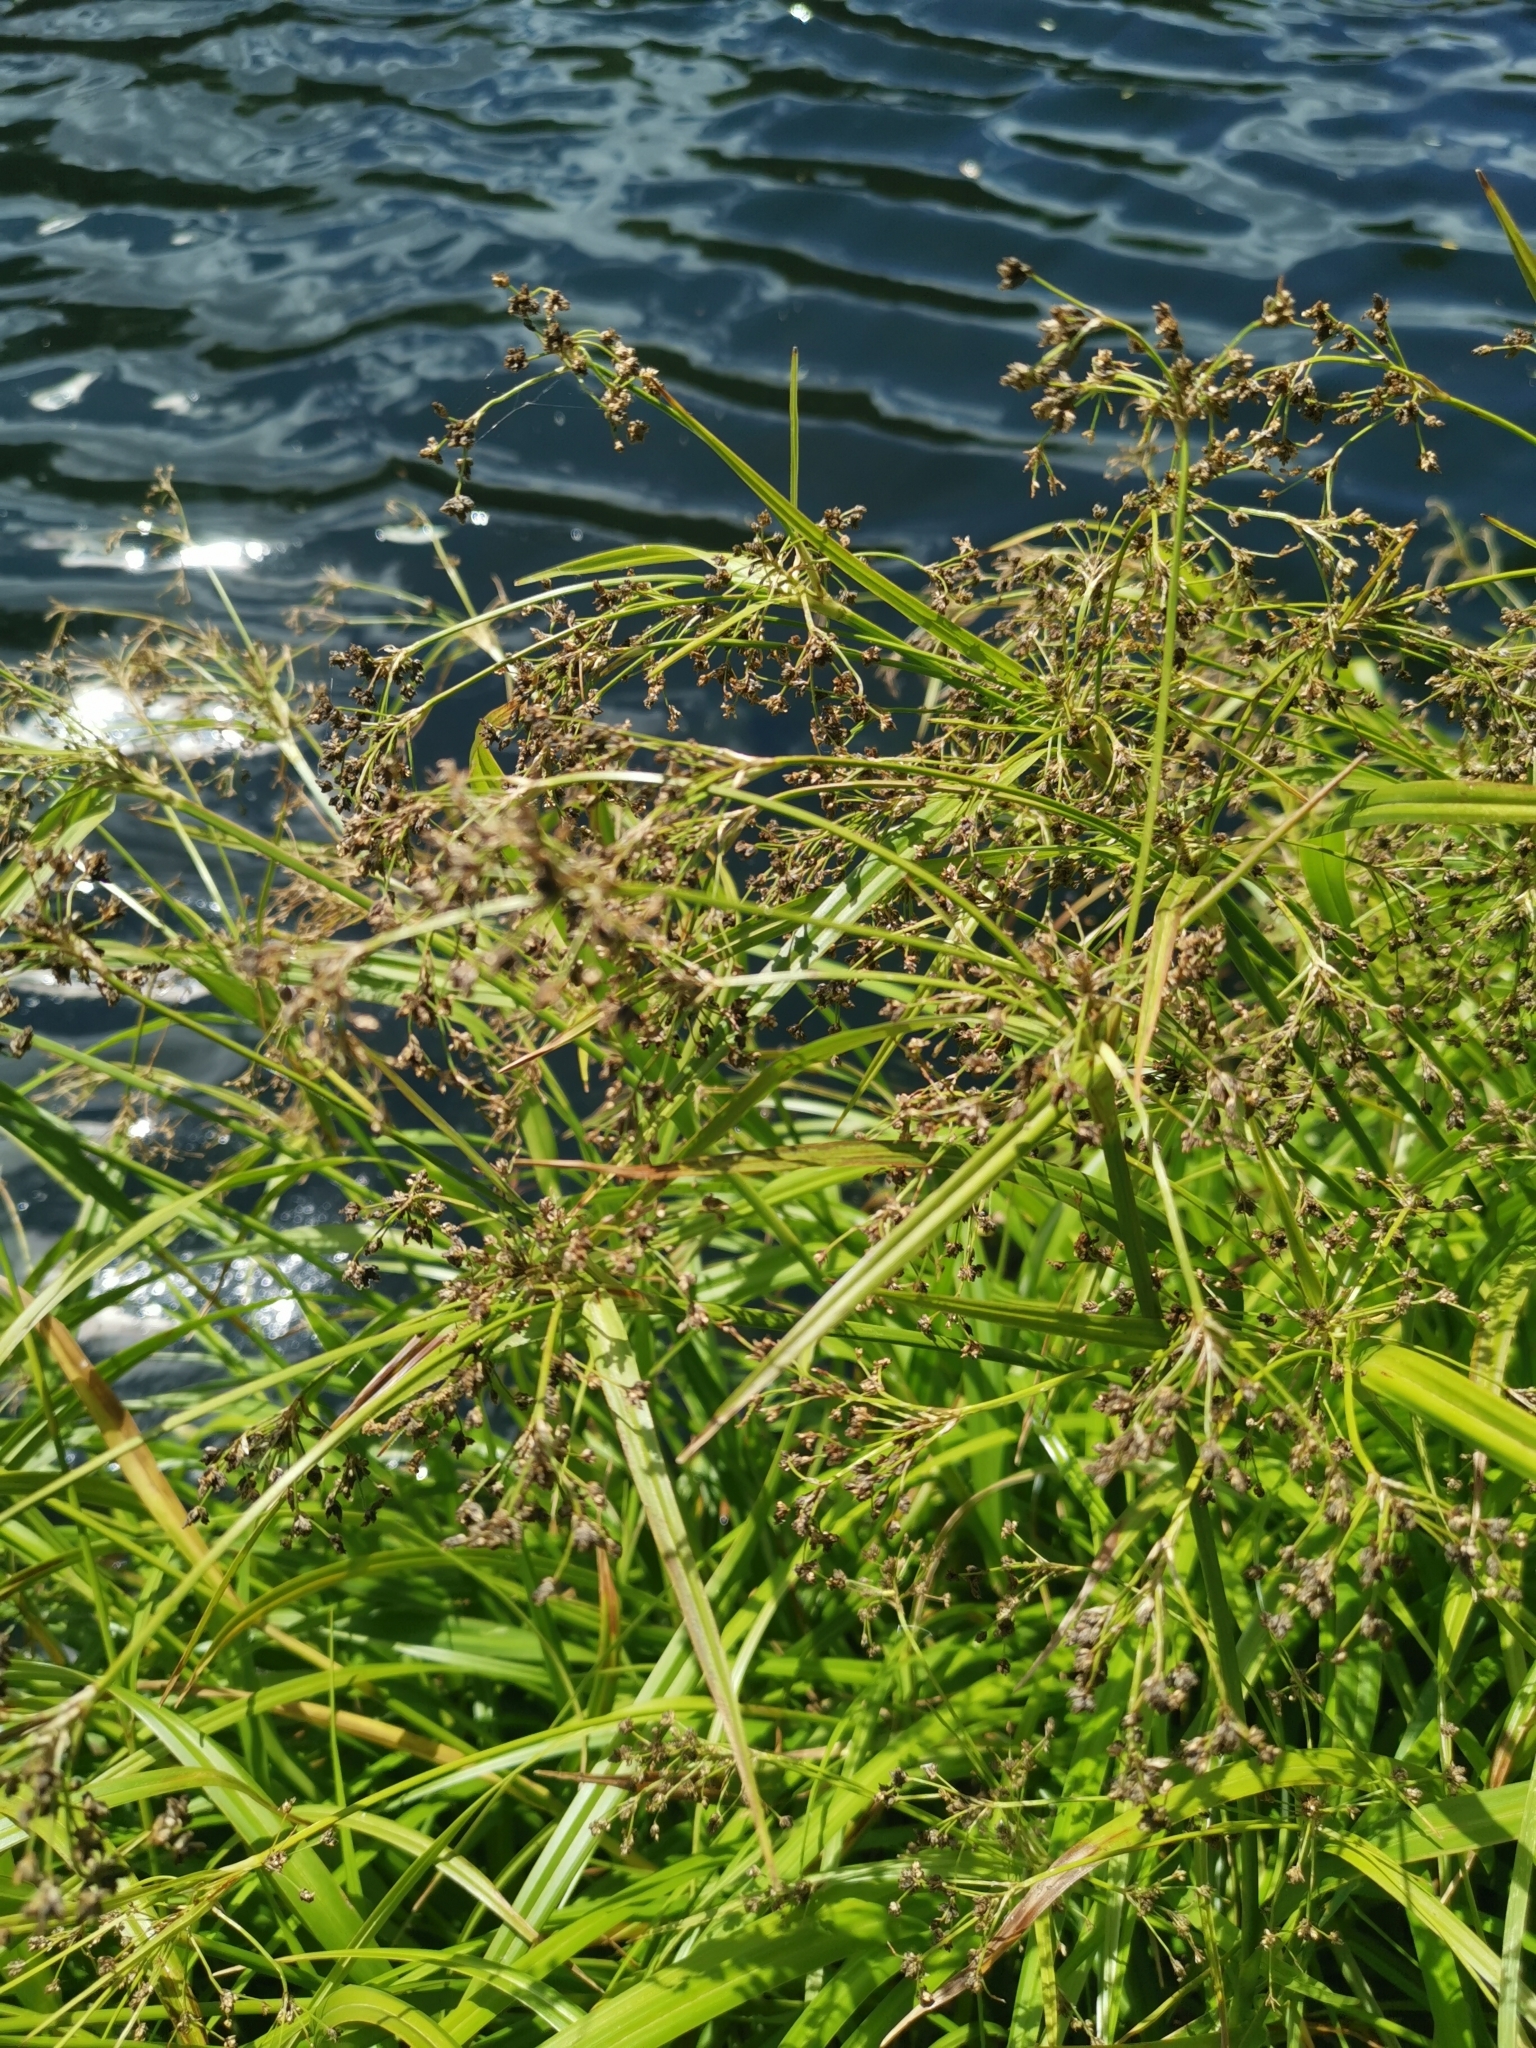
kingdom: Plantae
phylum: Tracheophyta
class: Liliopsida
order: Poales
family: Cyperaceae
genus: Scirpus
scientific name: Scirpus sylvaticus
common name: Wood club-rush
